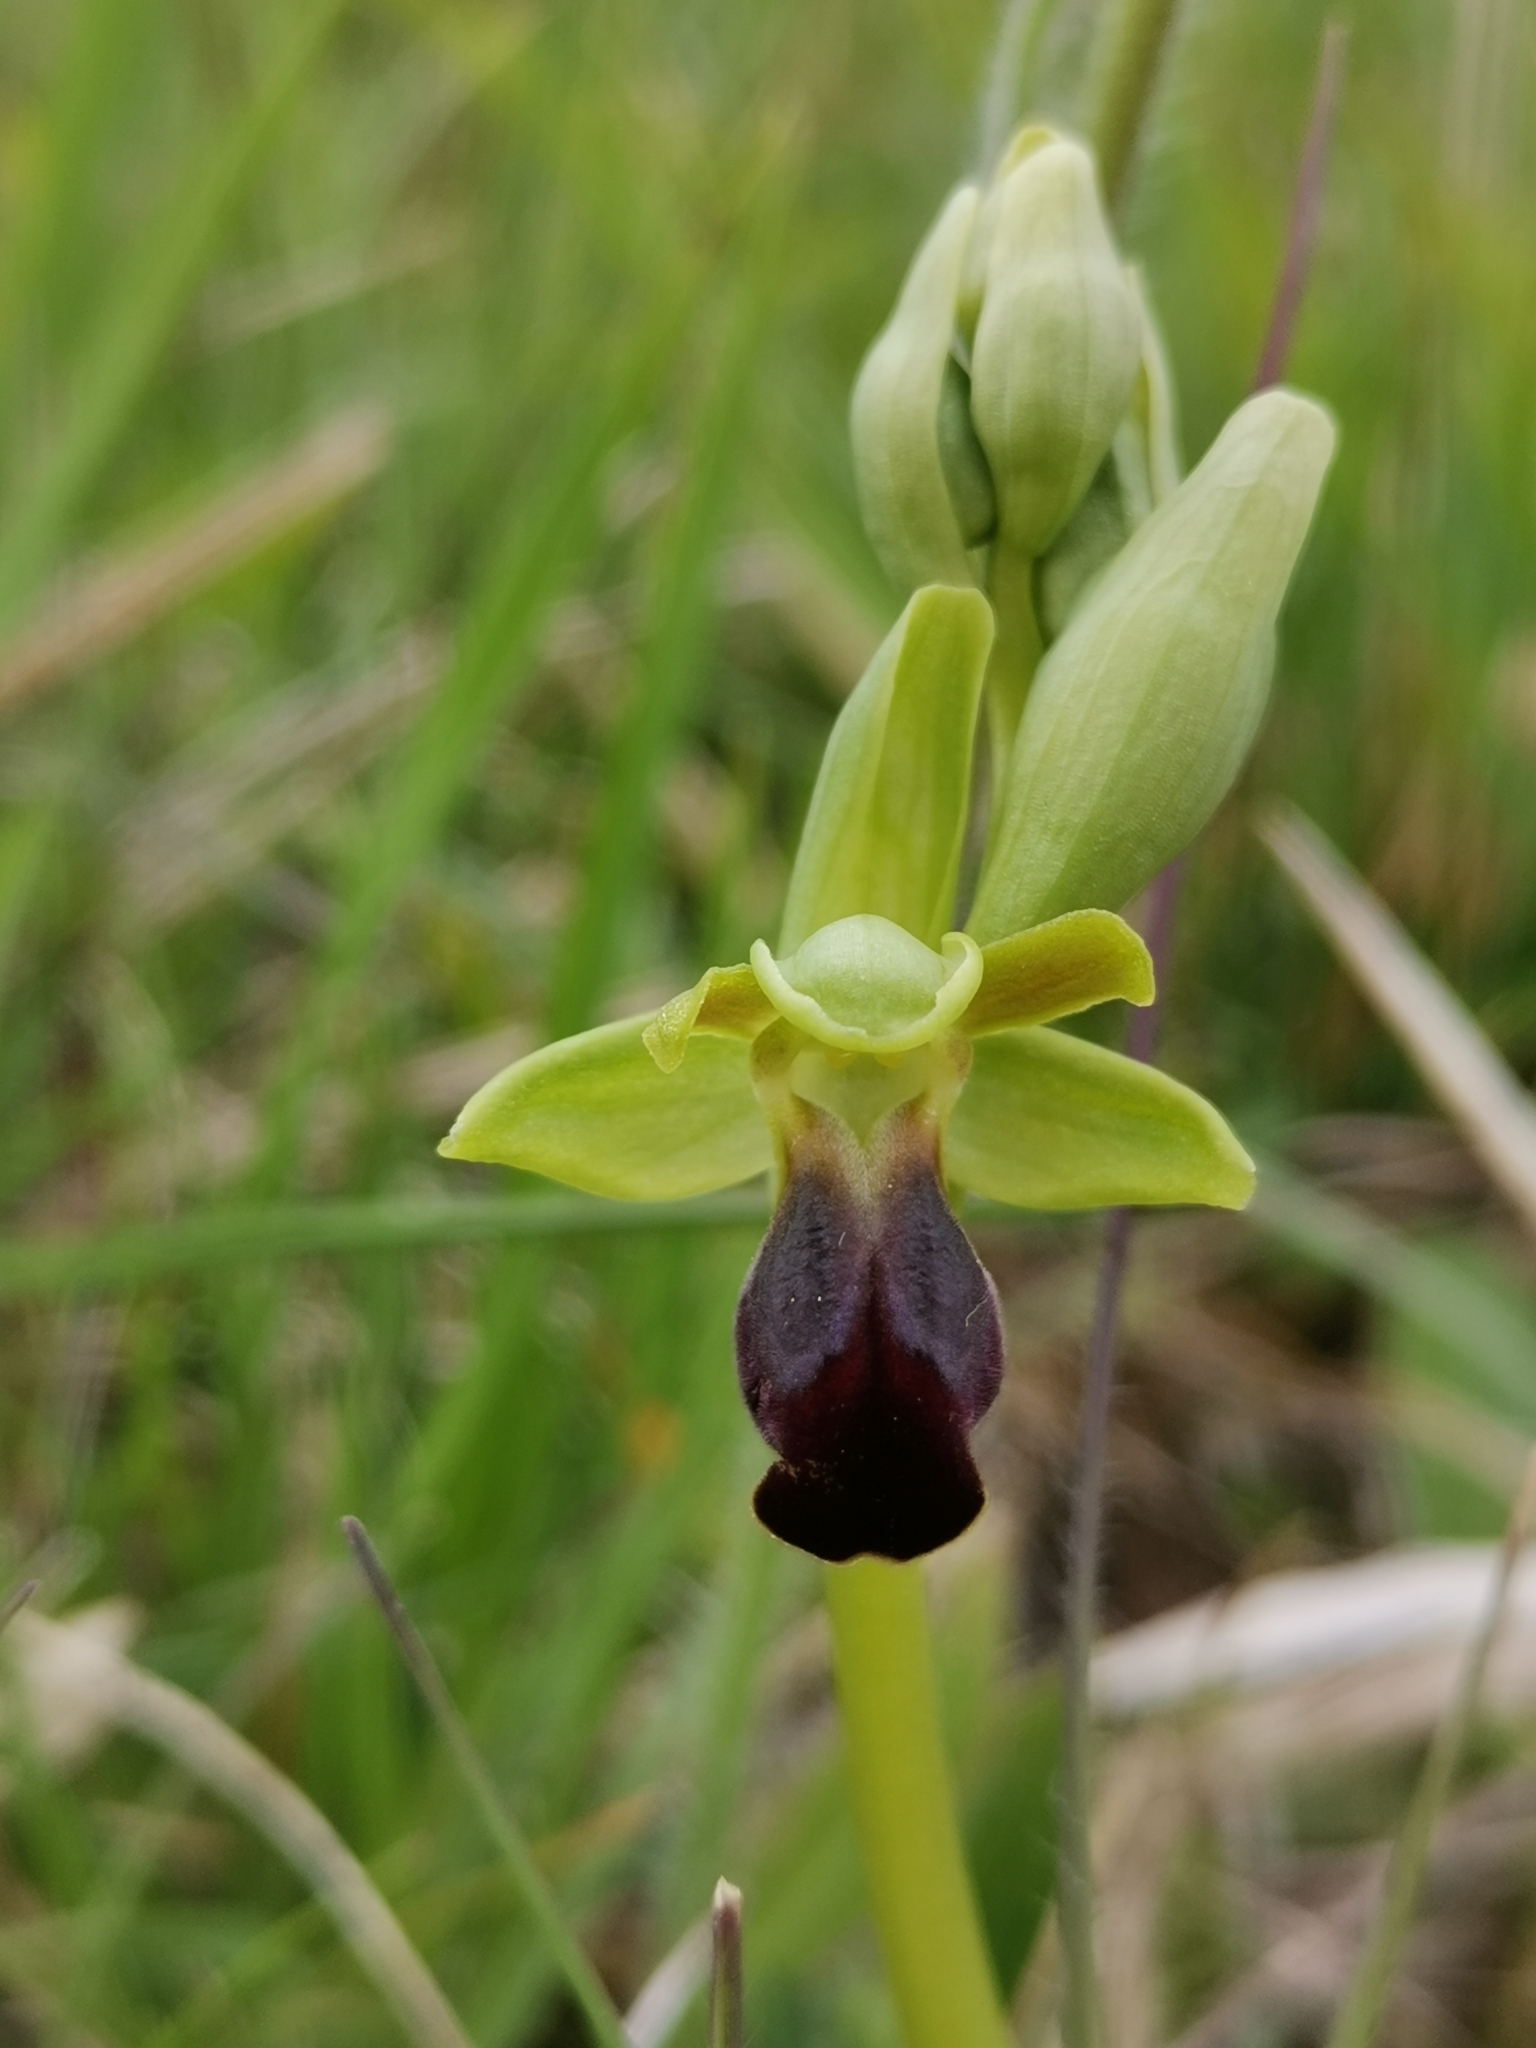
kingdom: Plantae
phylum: Tracheophyta
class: Liliopsida
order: Asparagales
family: Orchidaceae
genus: Ophrys
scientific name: Ophrys fusca
